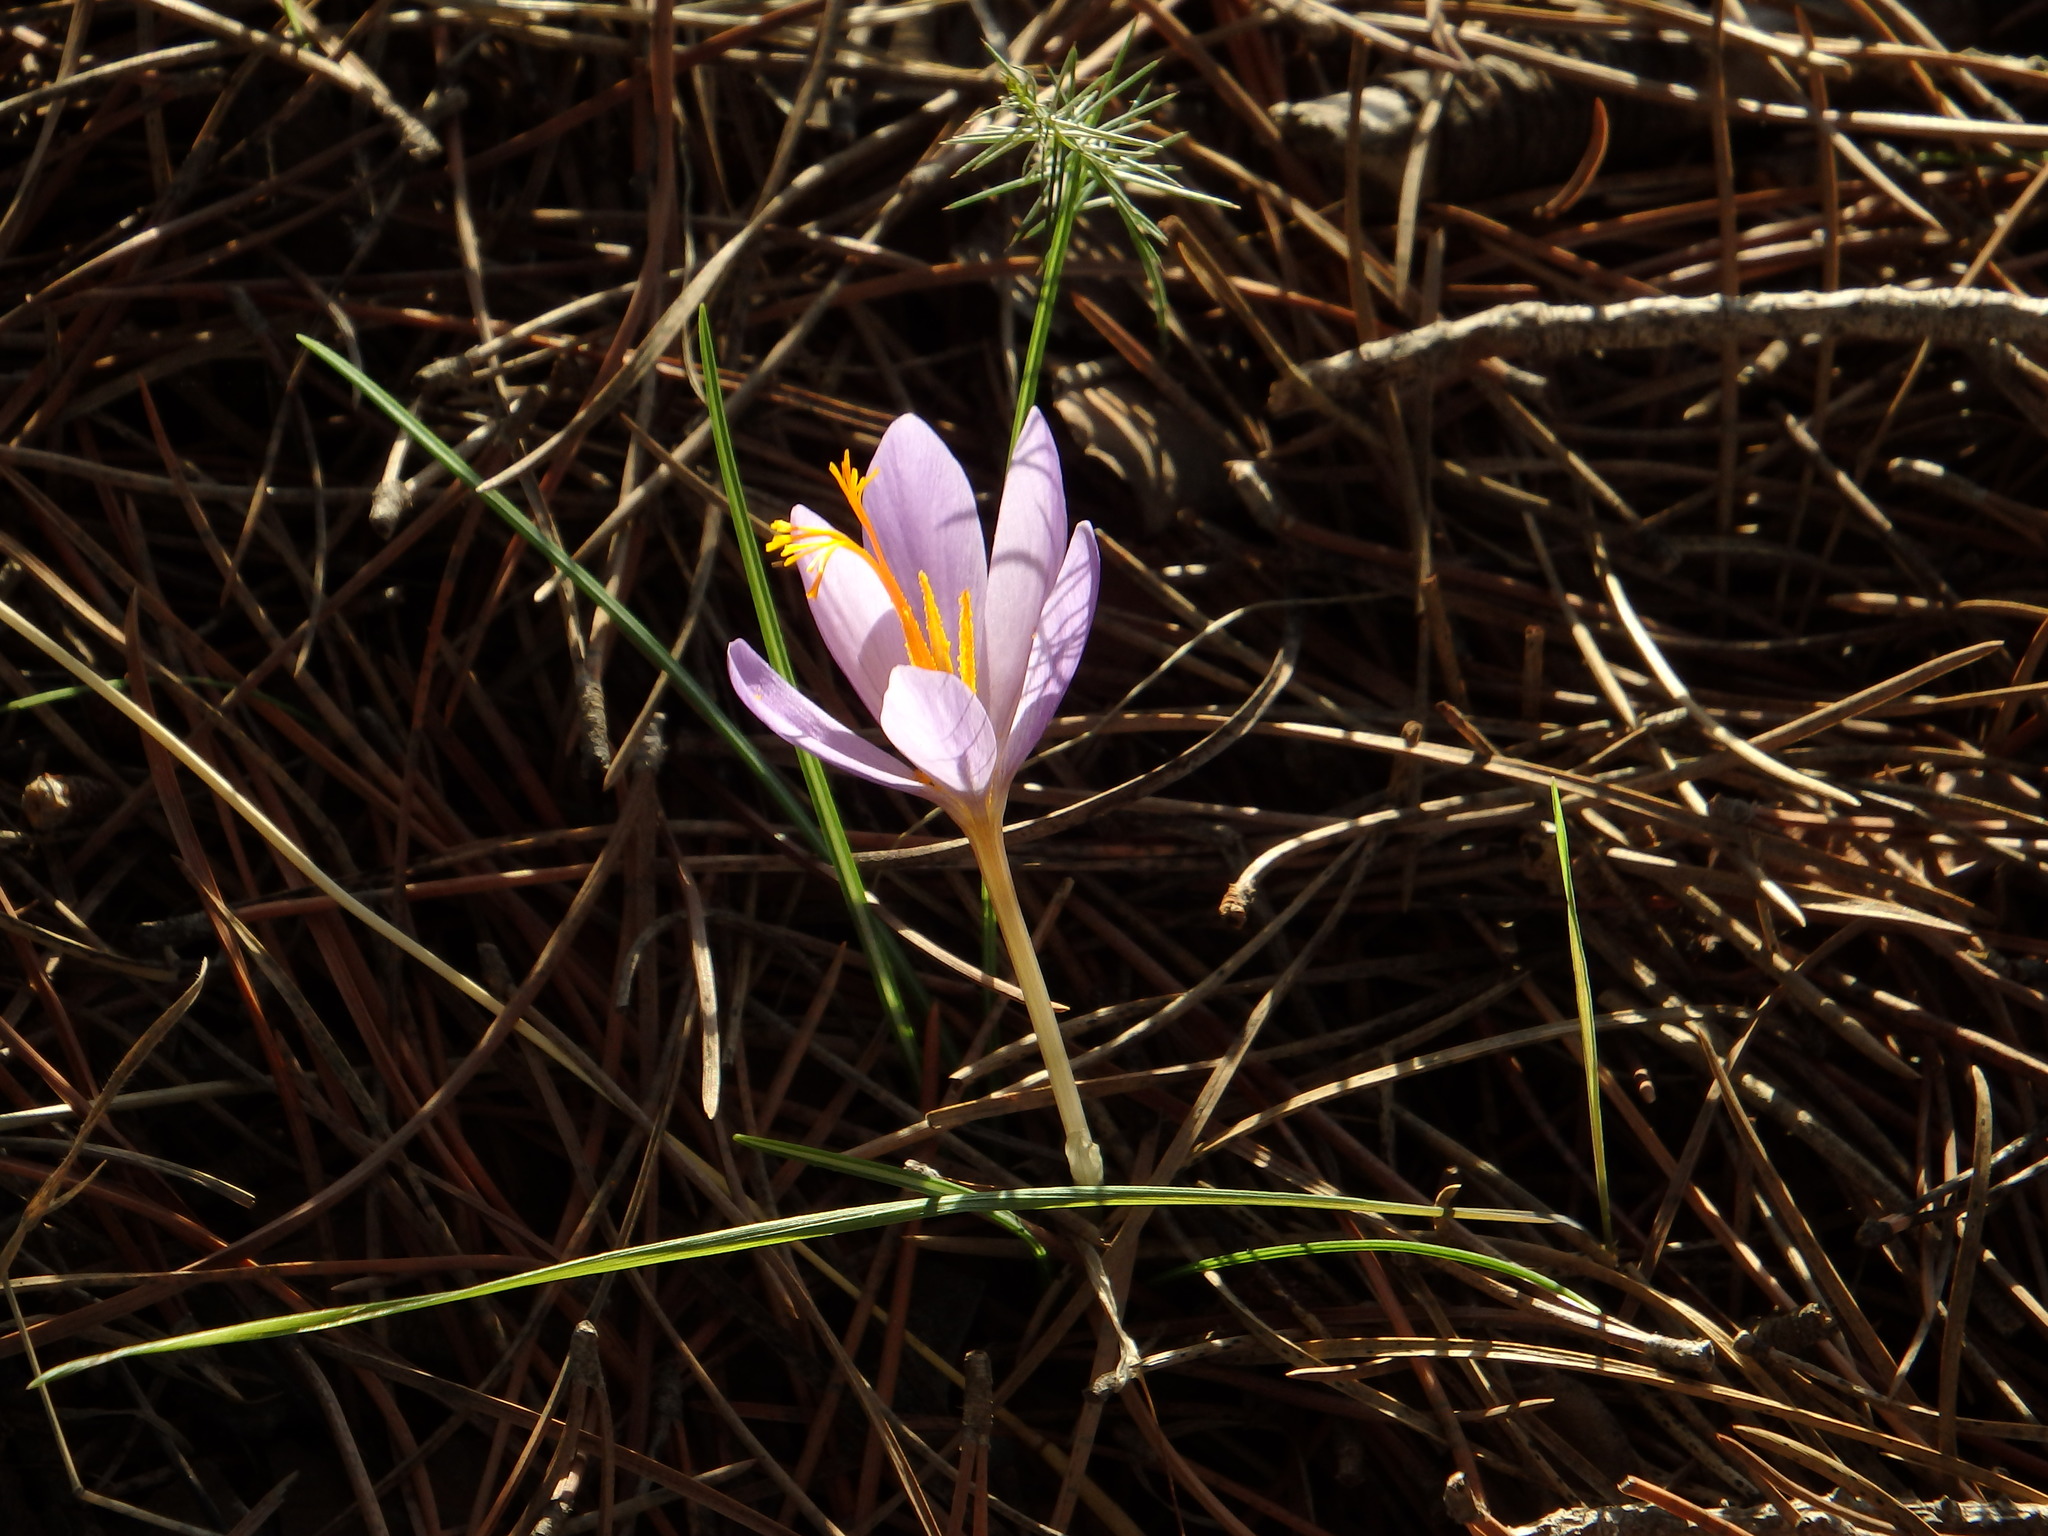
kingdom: Plantae
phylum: Tracheophyta
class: Liliopsida
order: Asparagales
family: Iridaceae
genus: Crocus
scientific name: Crocus serotinus
